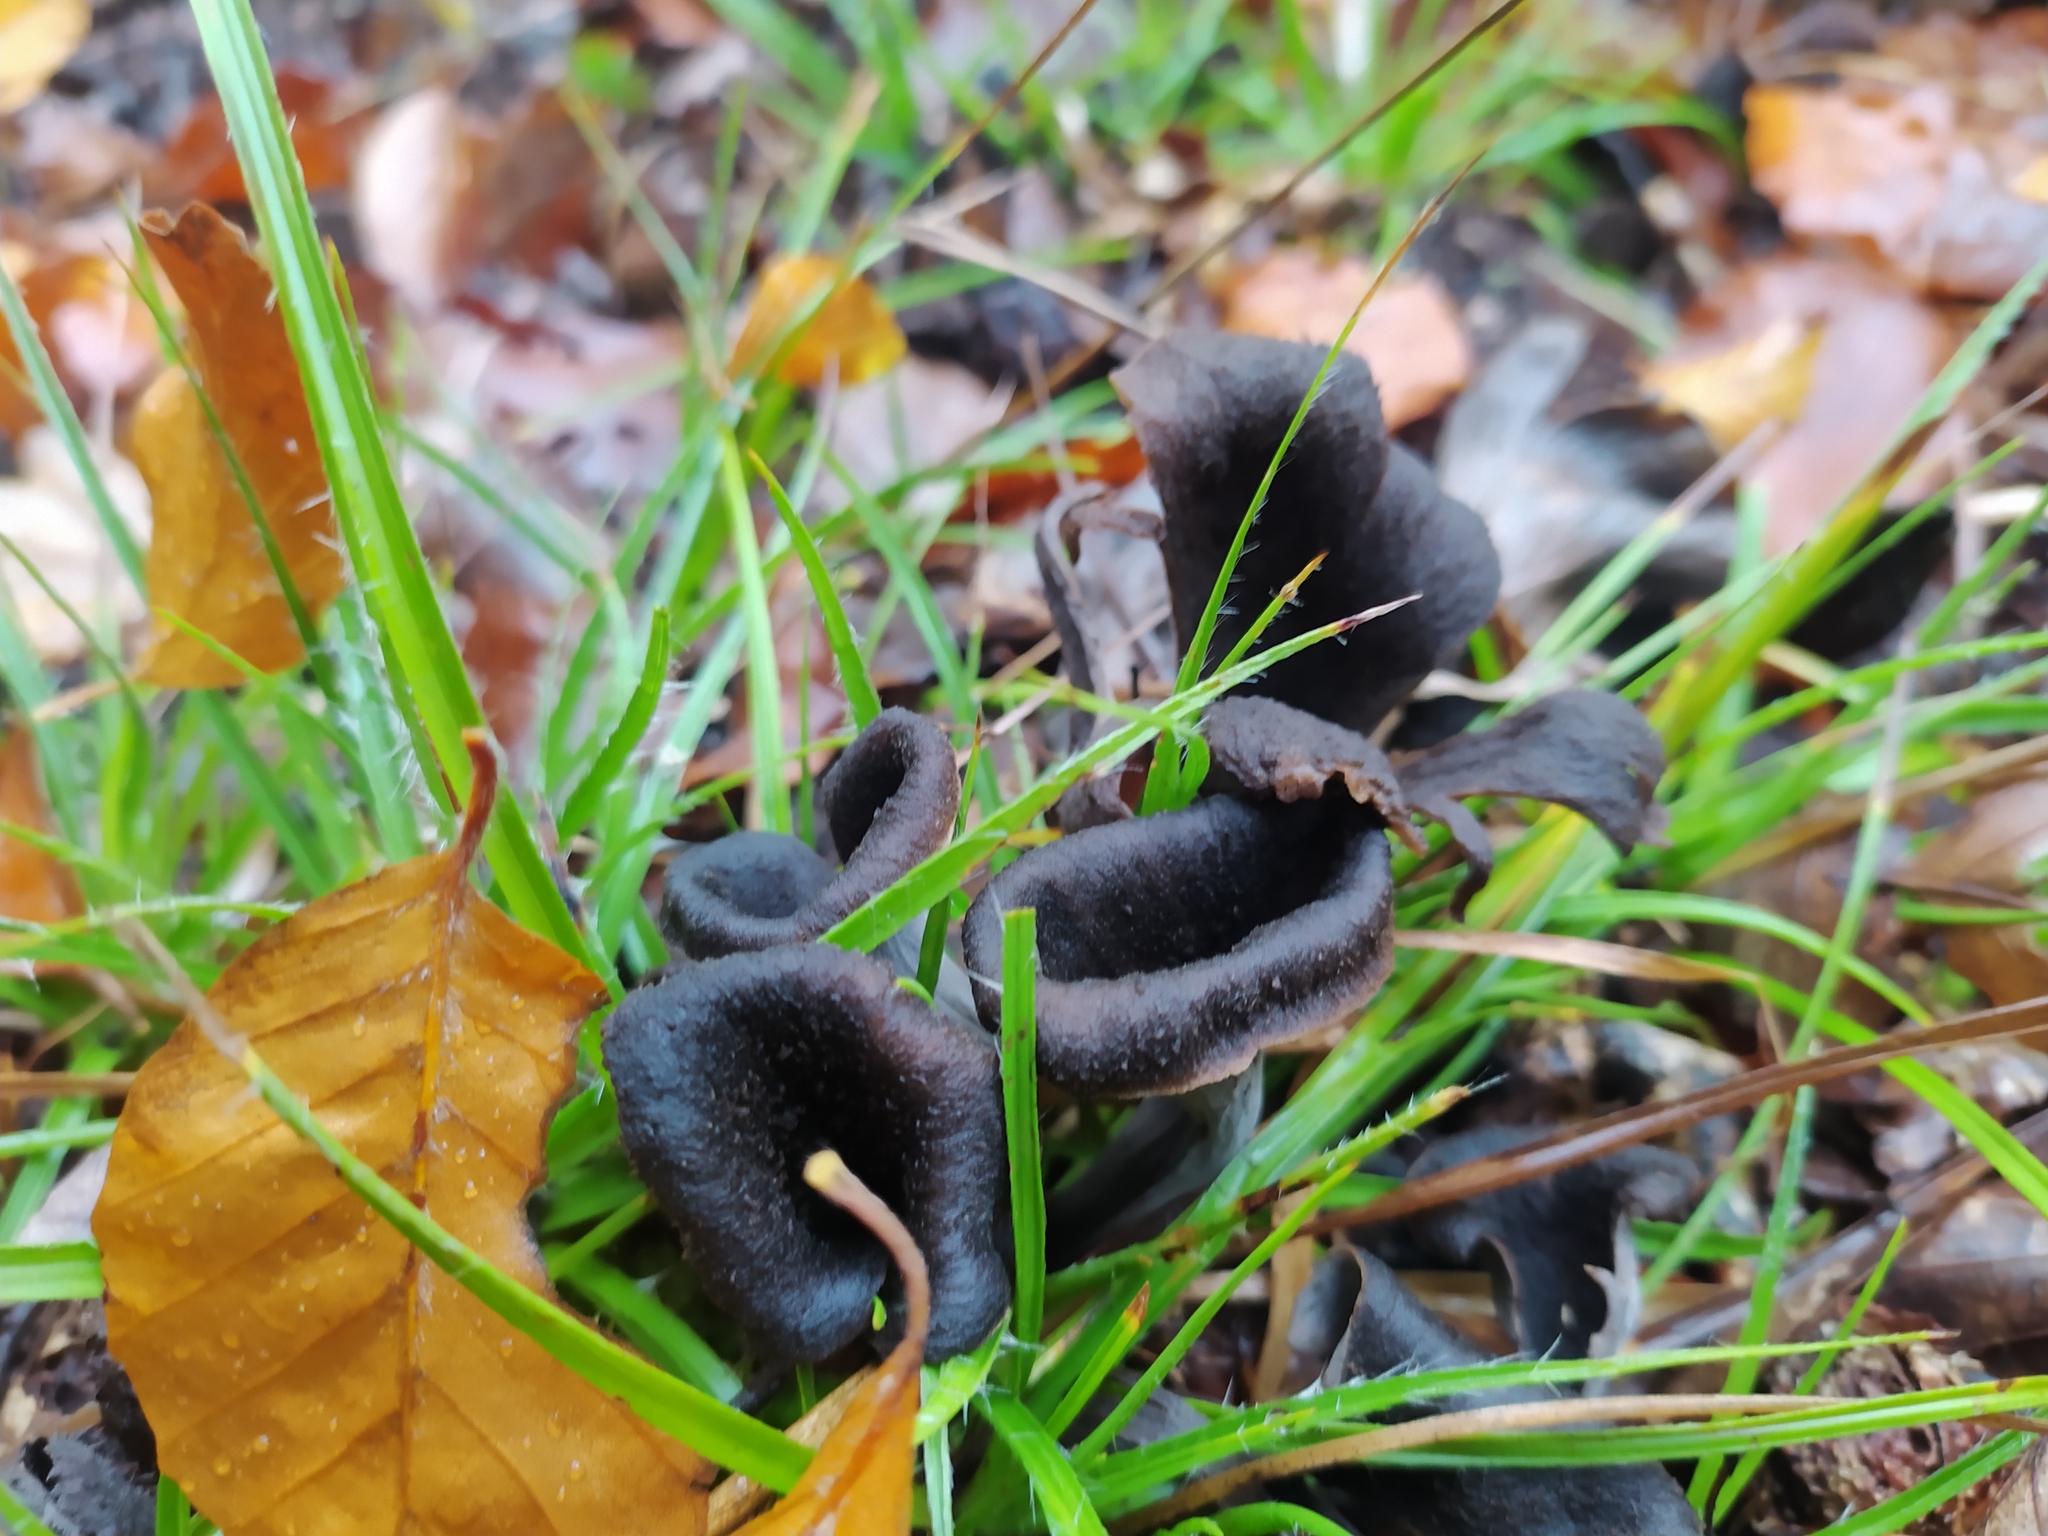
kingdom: Fungi
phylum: Basidiomycota
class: Agaricomycetes
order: Cantharellales
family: Hydnaceae
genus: Craterellus
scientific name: Craterellus cornucopioides
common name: Horn of plenty
